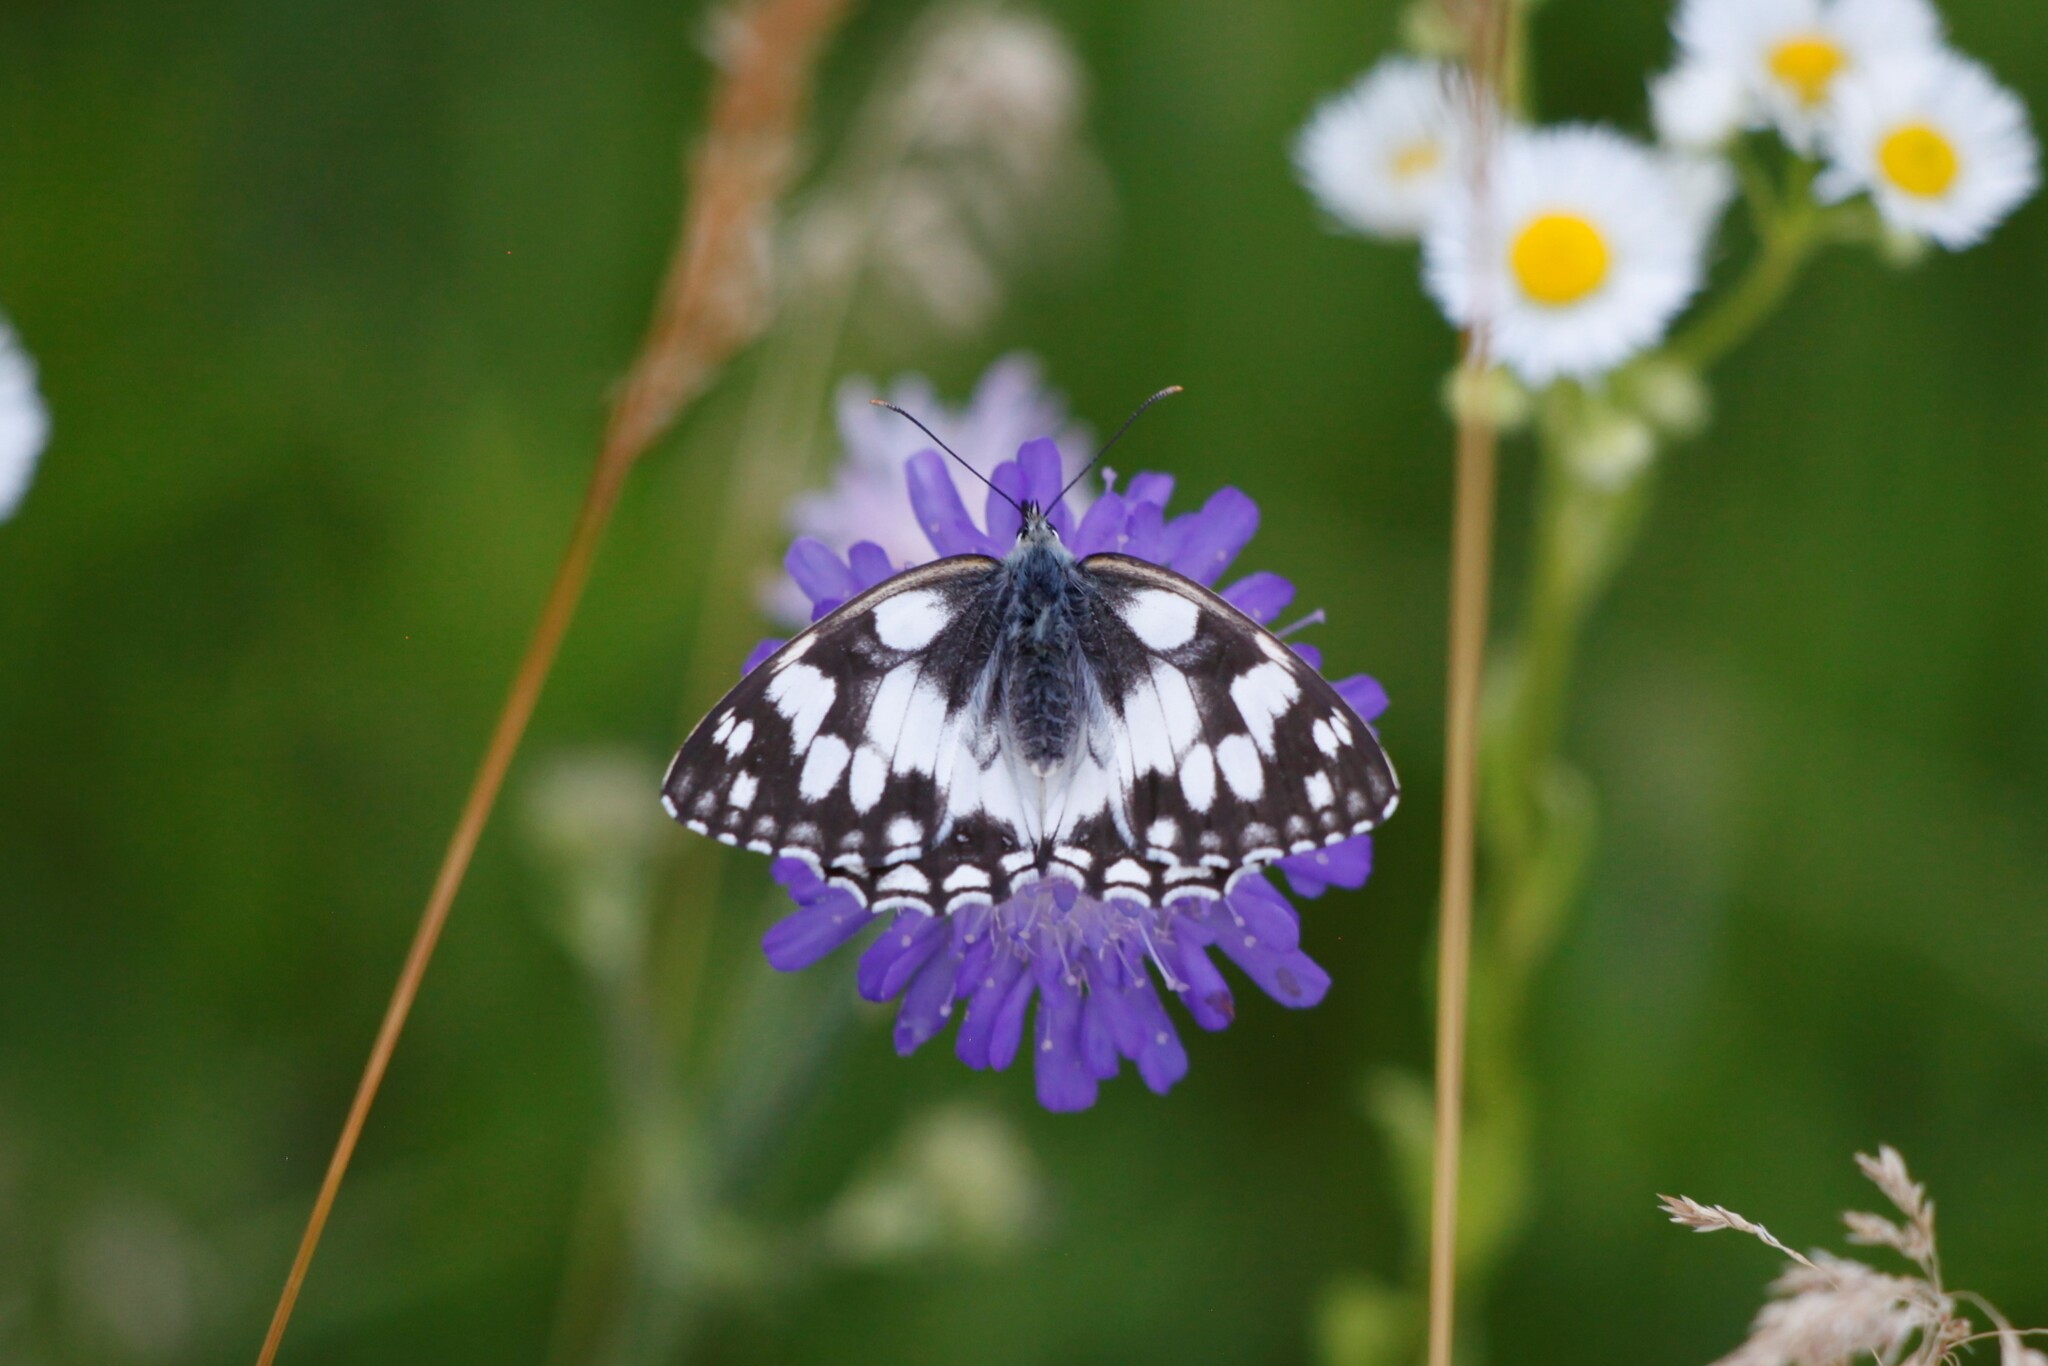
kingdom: Animalia
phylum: Arthropoda
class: Insecta
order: Lepidoptera
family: Nymphalidae
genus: Melanargia
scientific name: Melanargia galathea
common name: Marbled white
